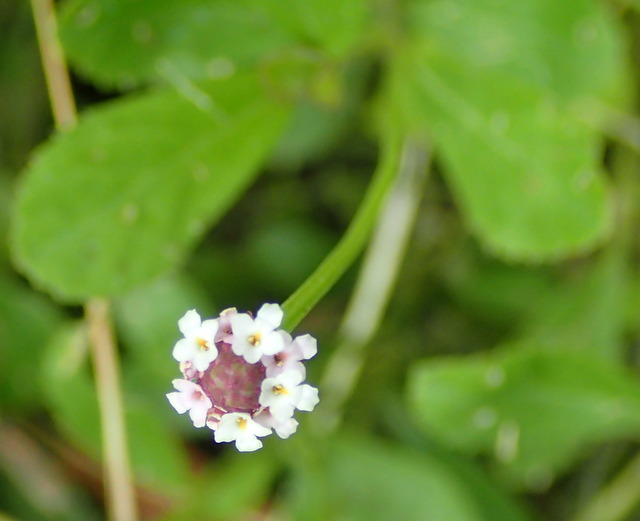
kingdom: Plantae
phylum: Tracheophyta
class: Magnoliopsida
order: Lamiales
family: Verbenaceae
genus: Phyla
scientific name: Phyla nodiflora
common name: Frogfruit
